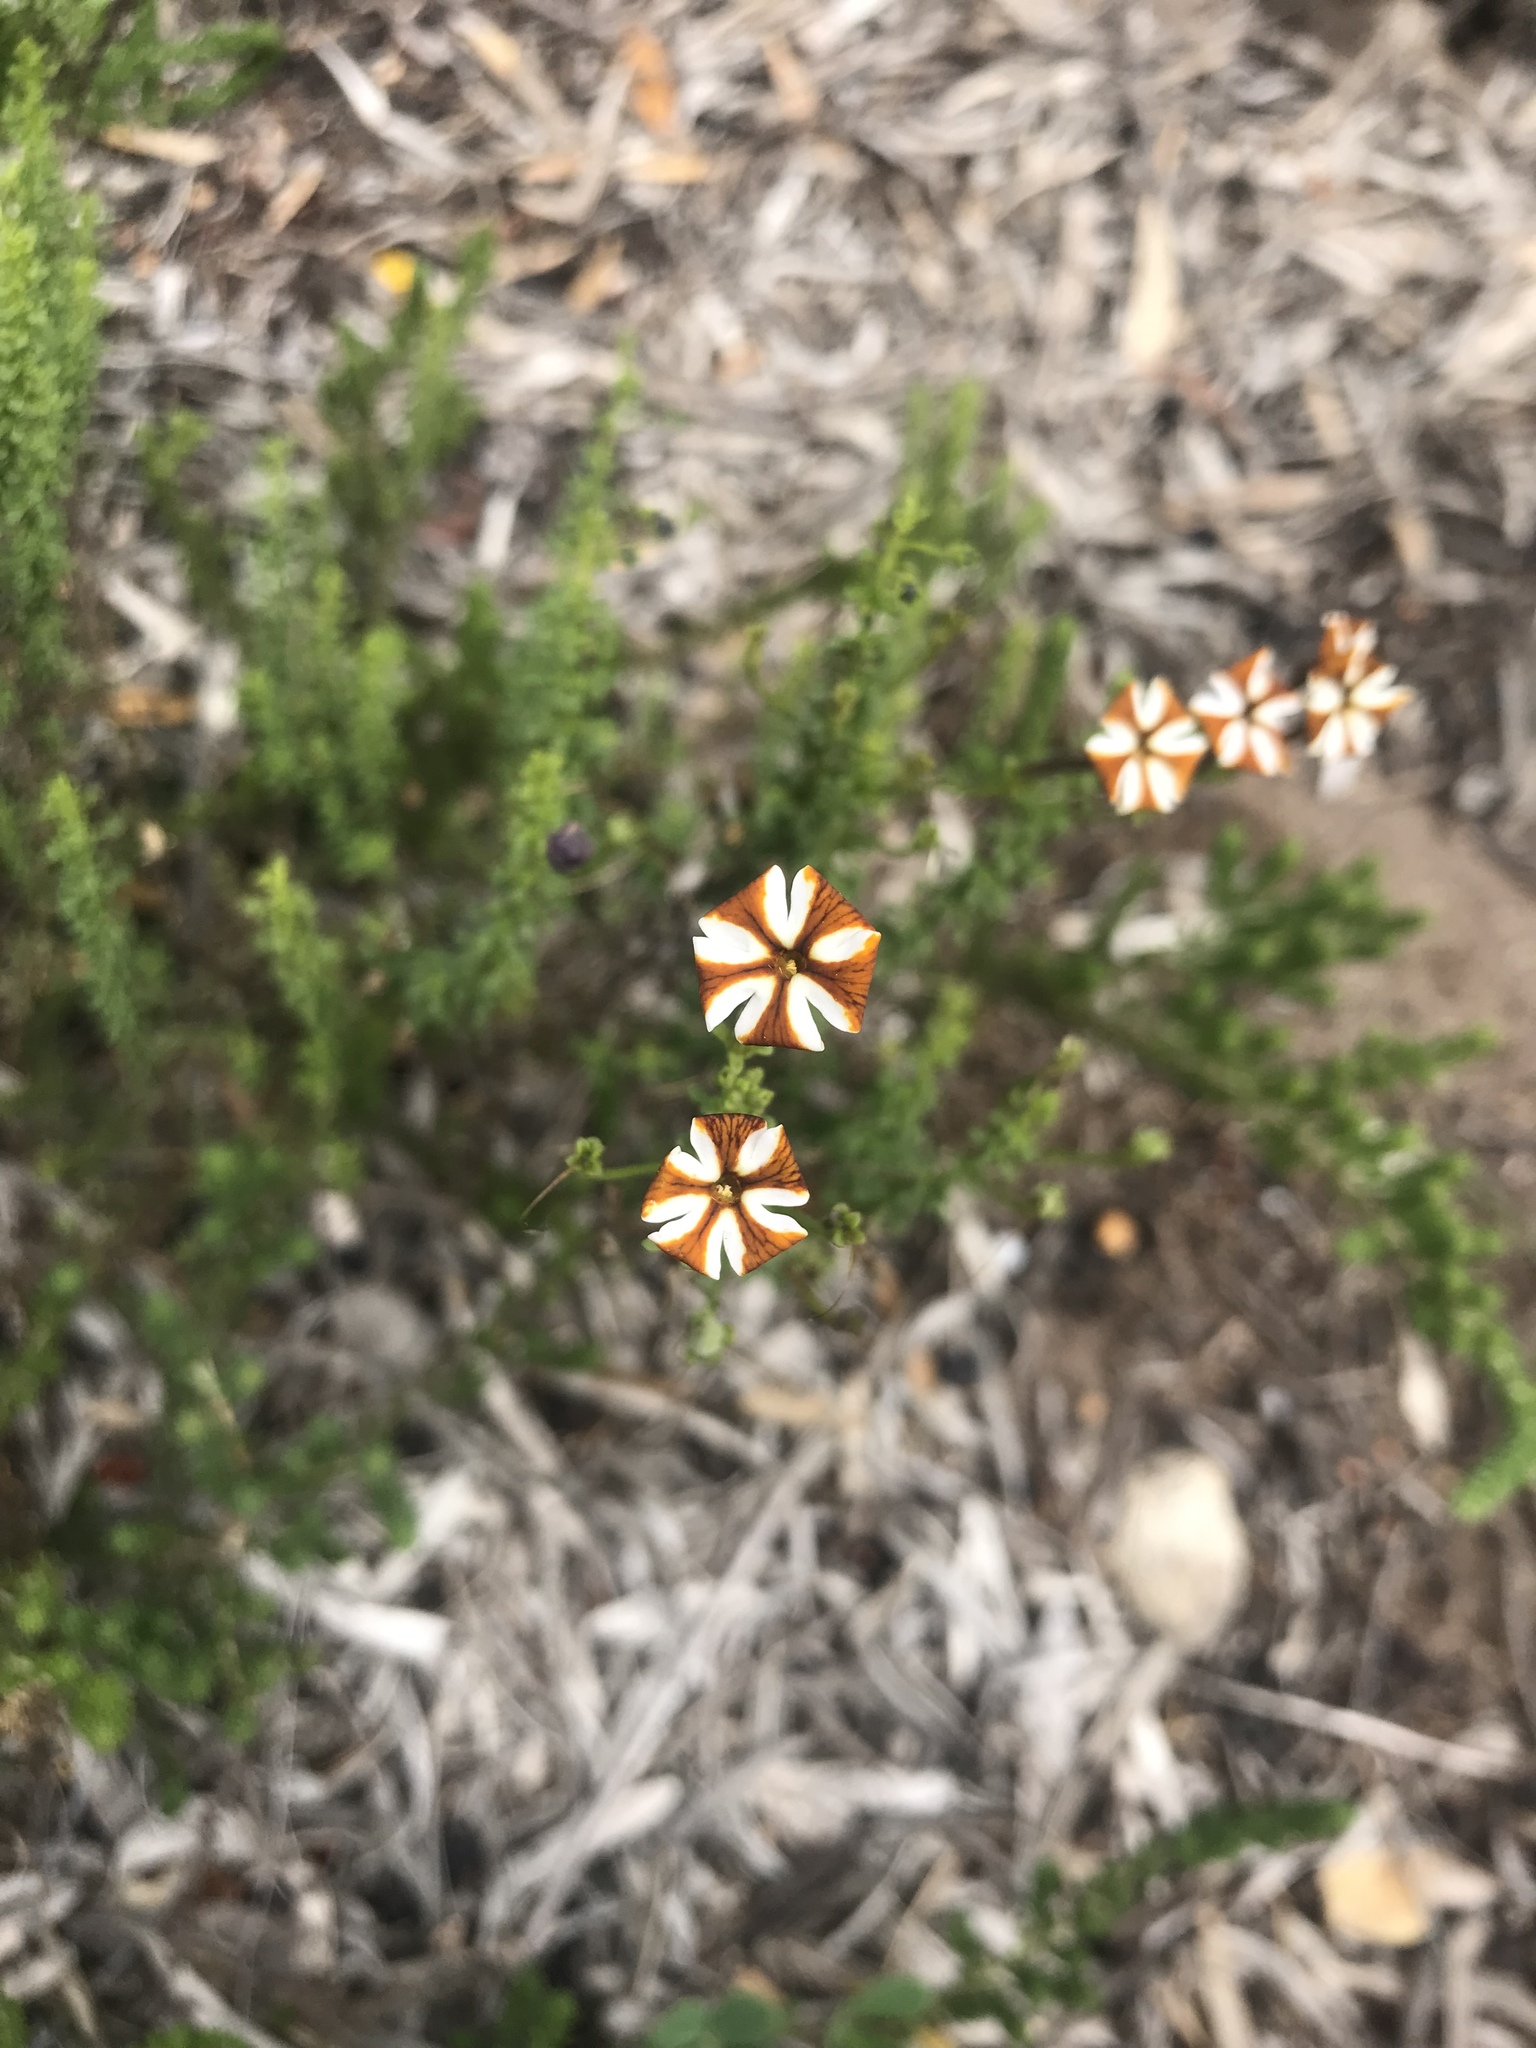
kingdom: Plantae
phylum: Tracheophyta
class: Magnoliopsida
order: Lamiales
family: Scrophulariaceae
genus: Jamesbrittenia
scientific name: Jamesbrittenia albomarginata
